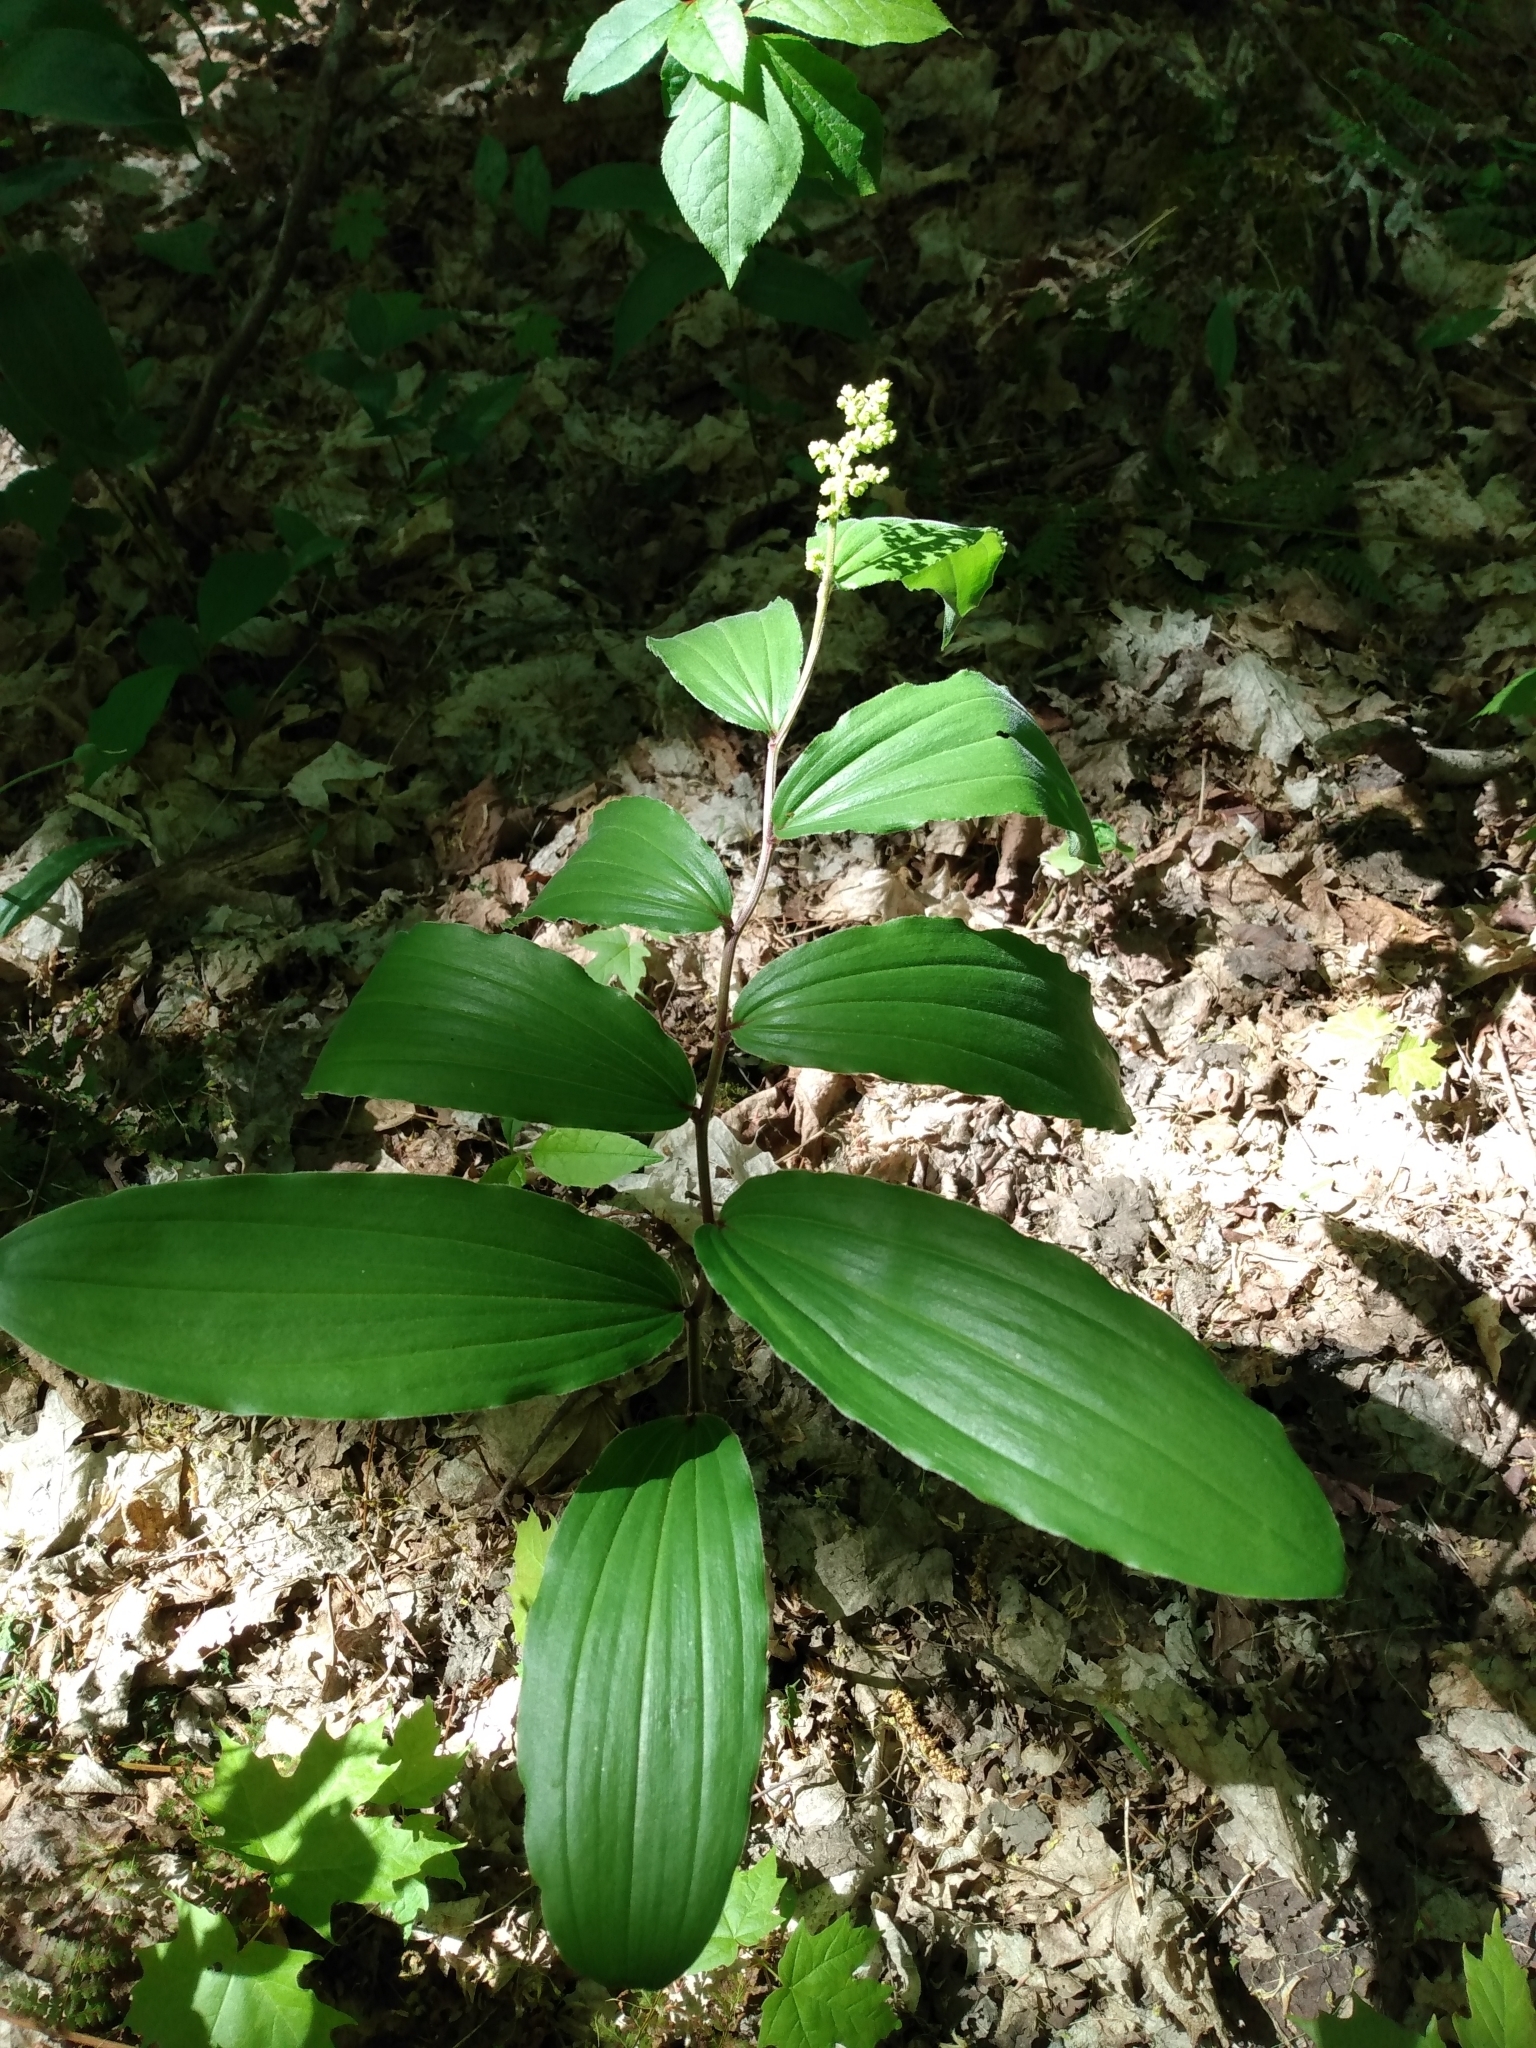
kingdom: Plantae
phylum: Tracheophyta
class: Liliopsida
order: Asparagales
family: Asparagaceae
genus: Maianthemum
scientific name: Maianthemum racemosum
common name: False spikenard
